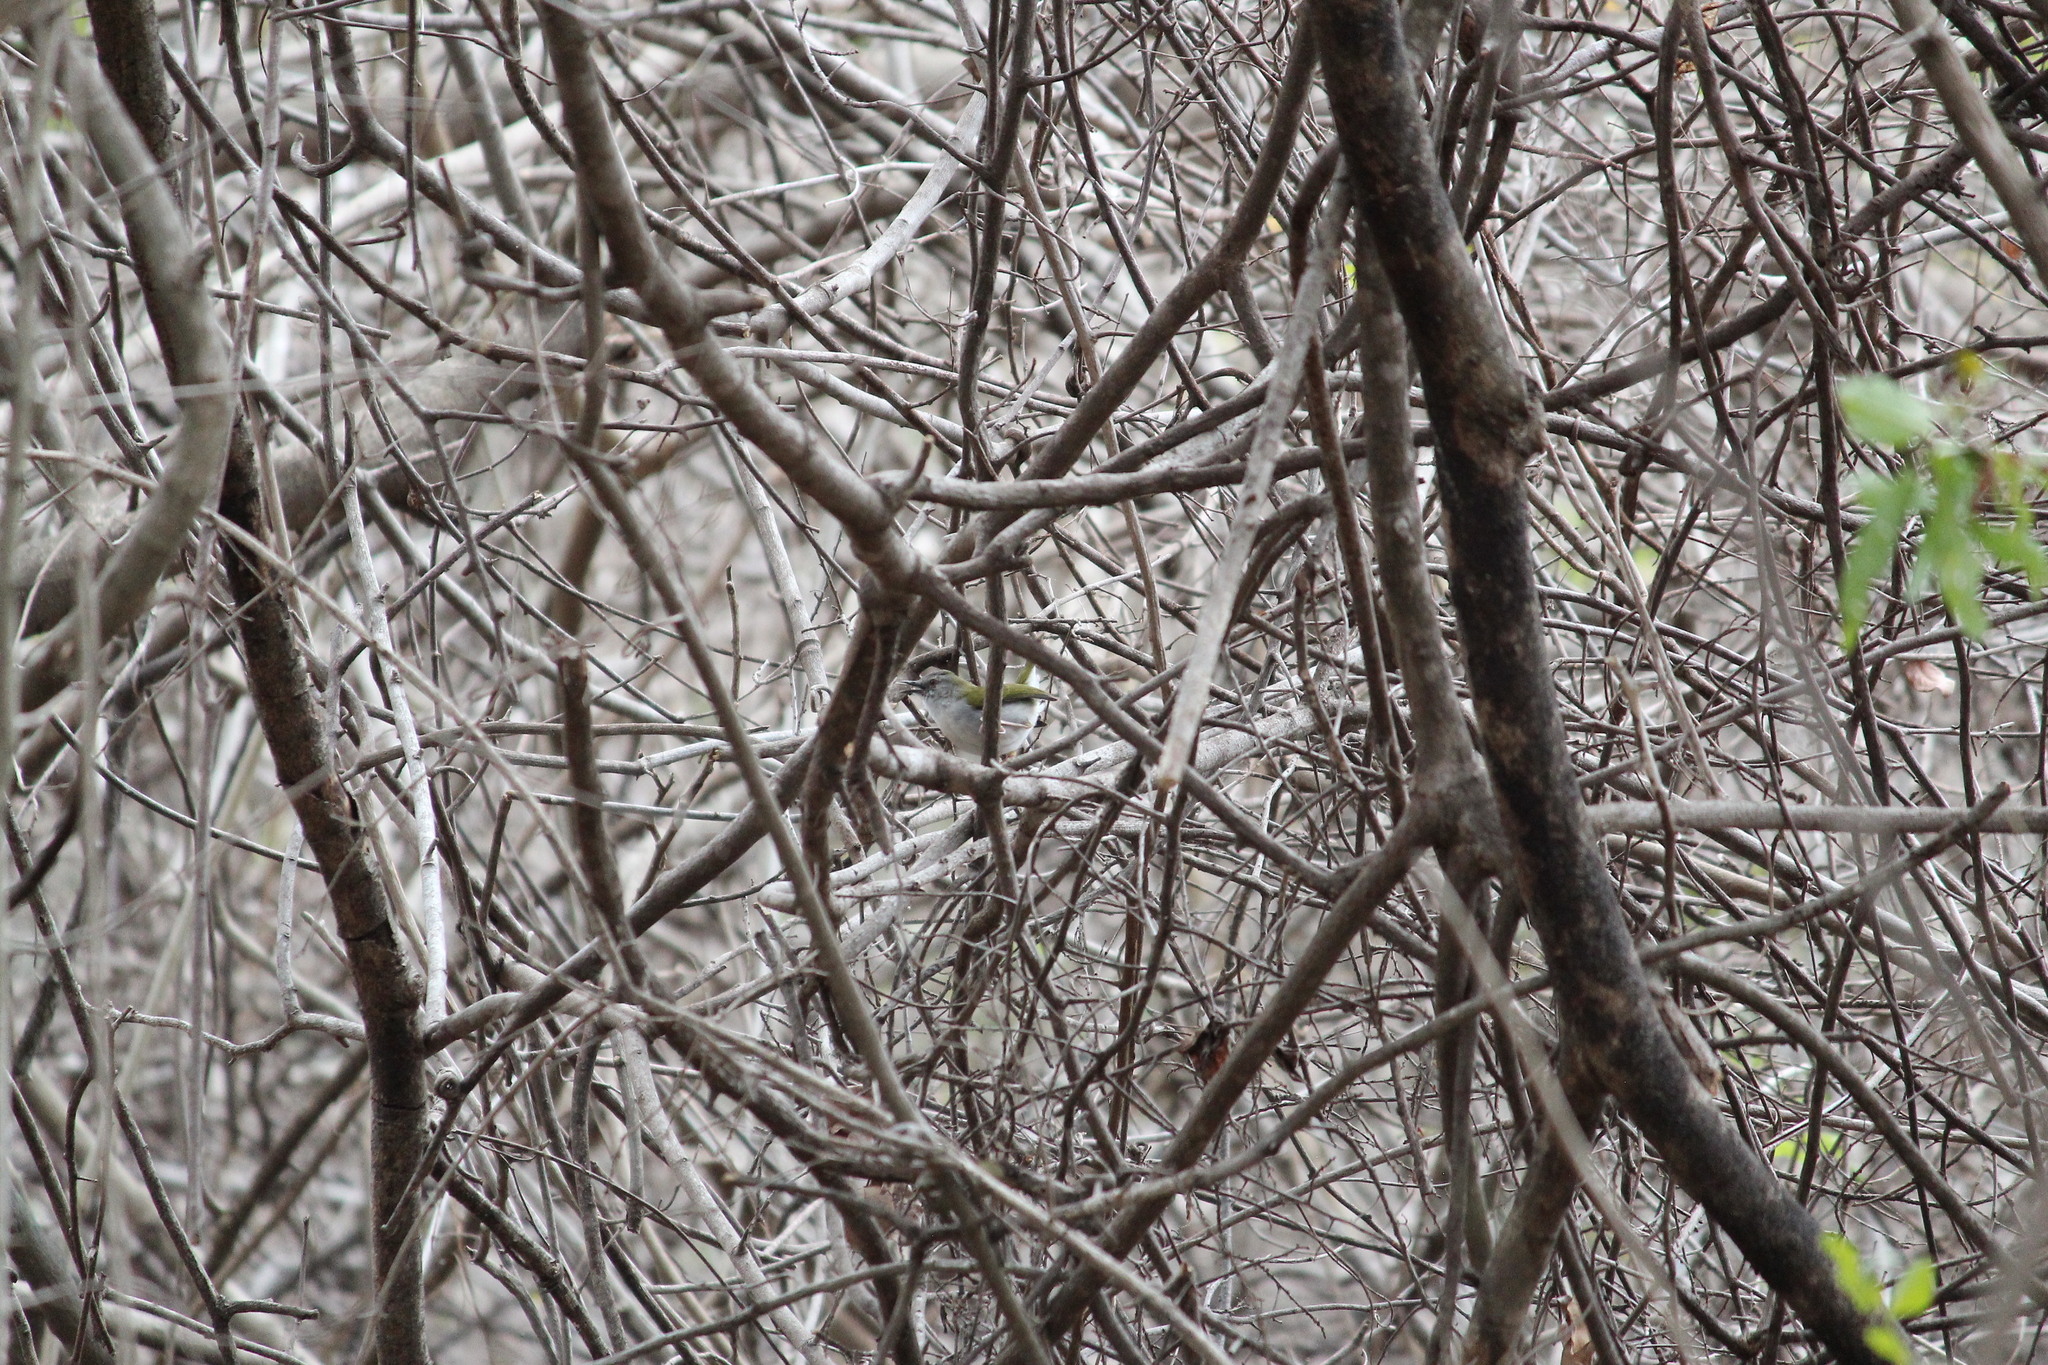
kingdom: Animalia
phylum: Chordata
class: Aves
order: Passeriformes
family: Cisticolidae
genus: Camaroptera
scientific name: Camaroptera brachyura
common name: Green-backed camaroptera
